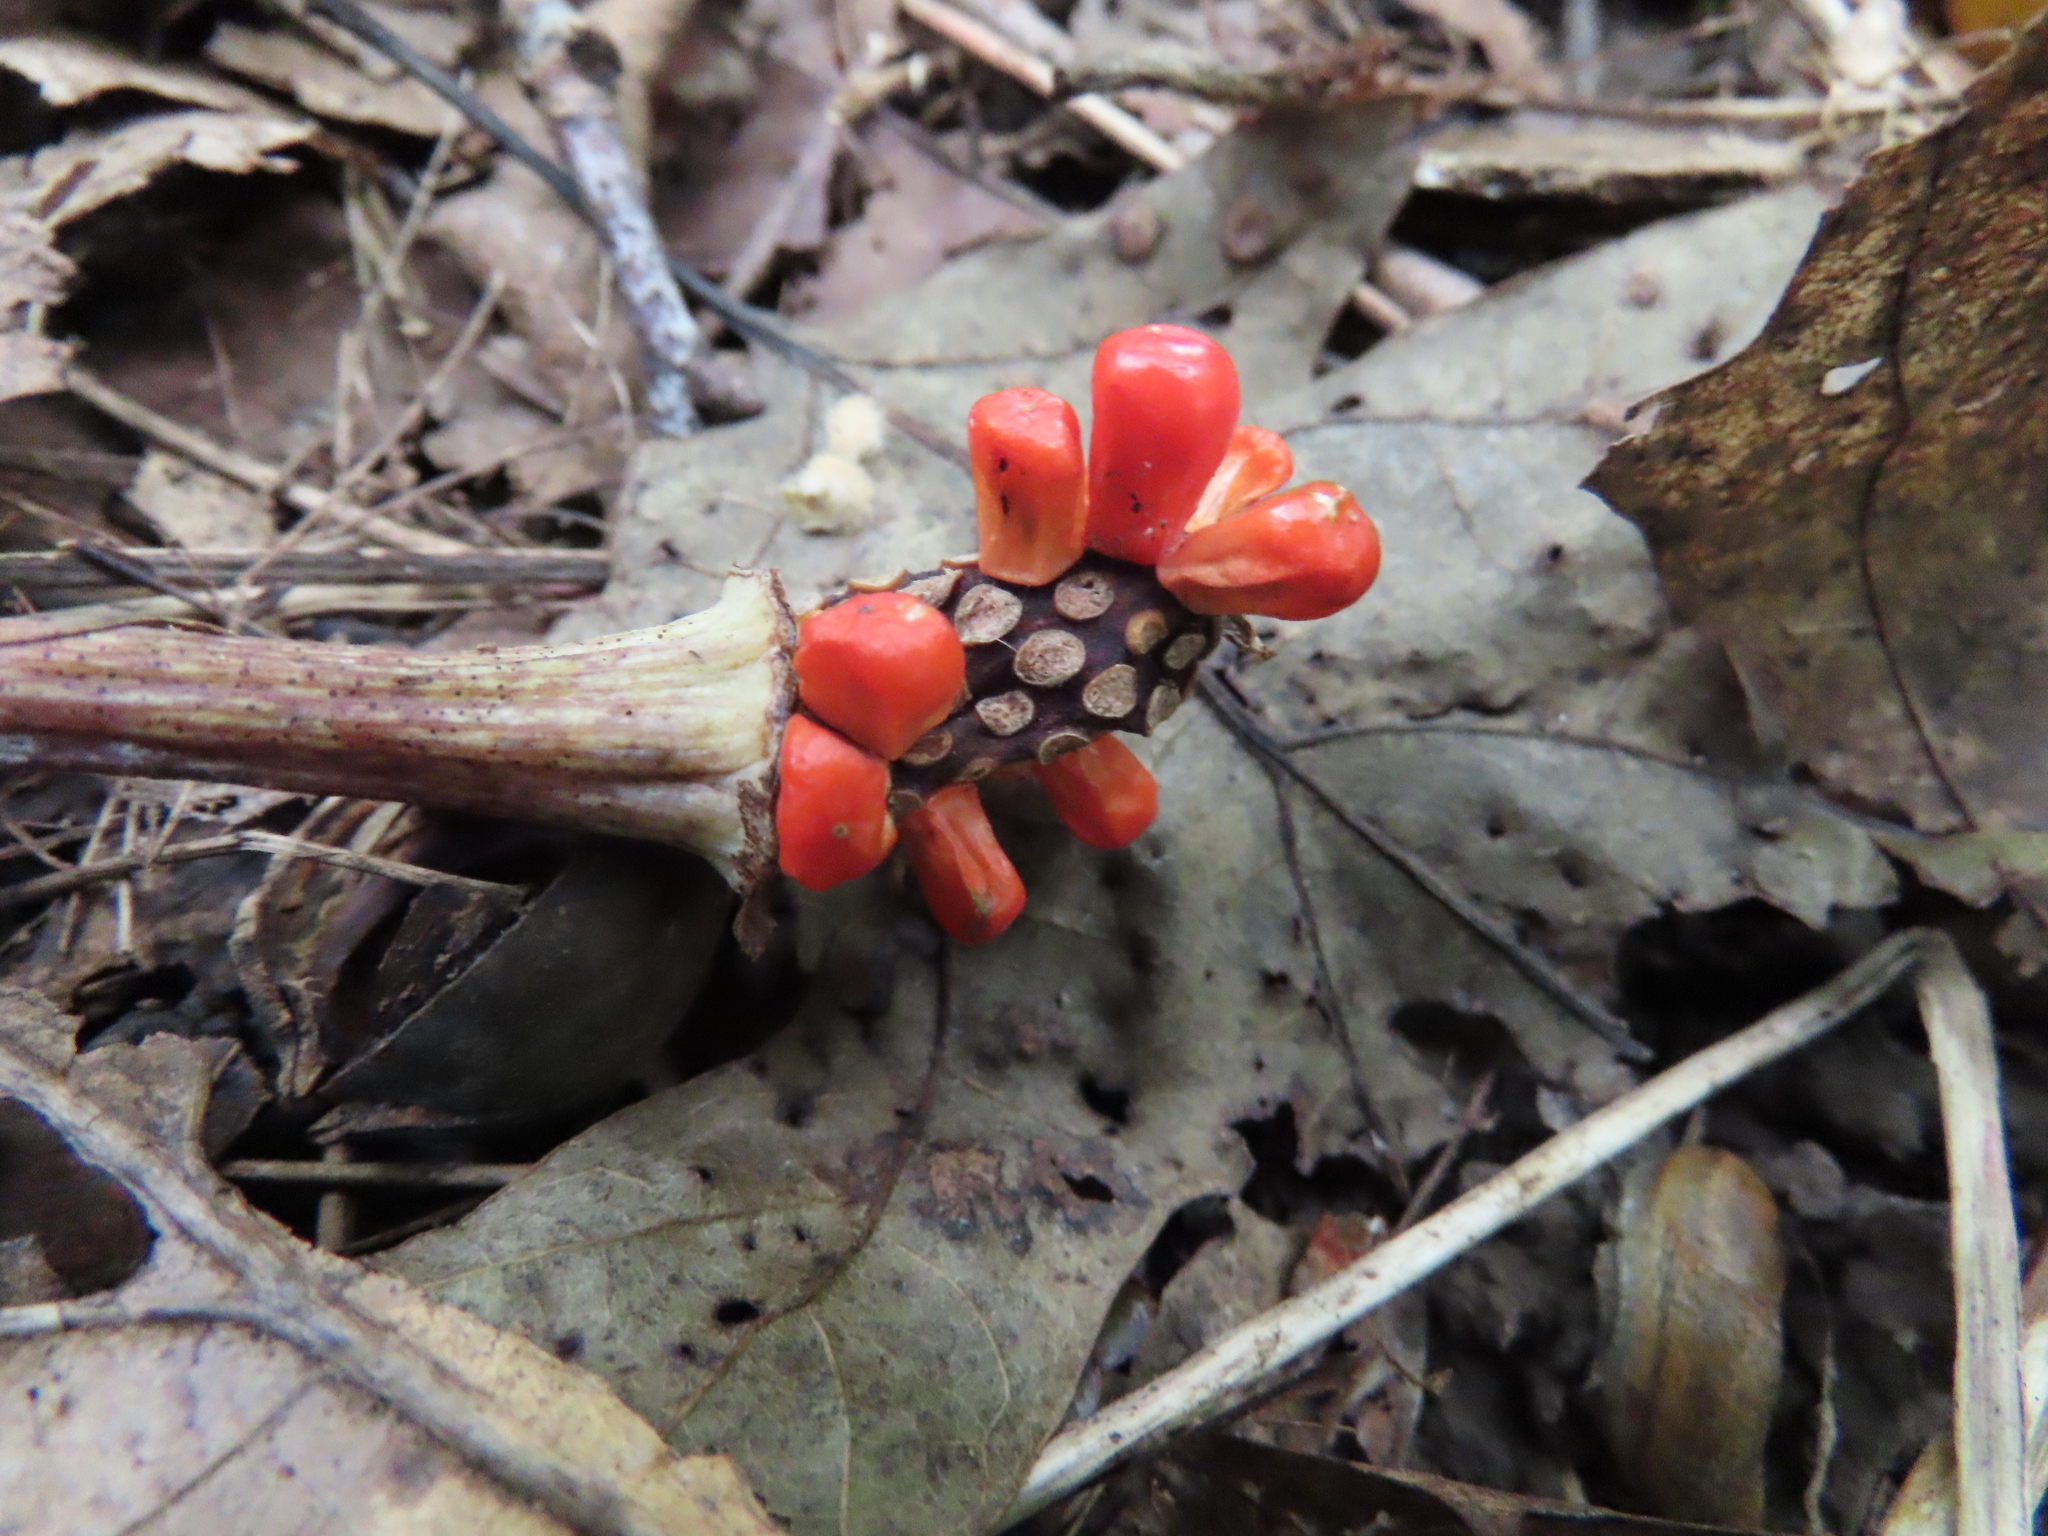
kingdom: Plantae
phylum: Tracheophyta
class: Liliopsida
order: Alismatales
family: Araceae
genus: Arisaema
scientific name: Arisaema triphyllum
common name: Jack-in-the-pulpit
